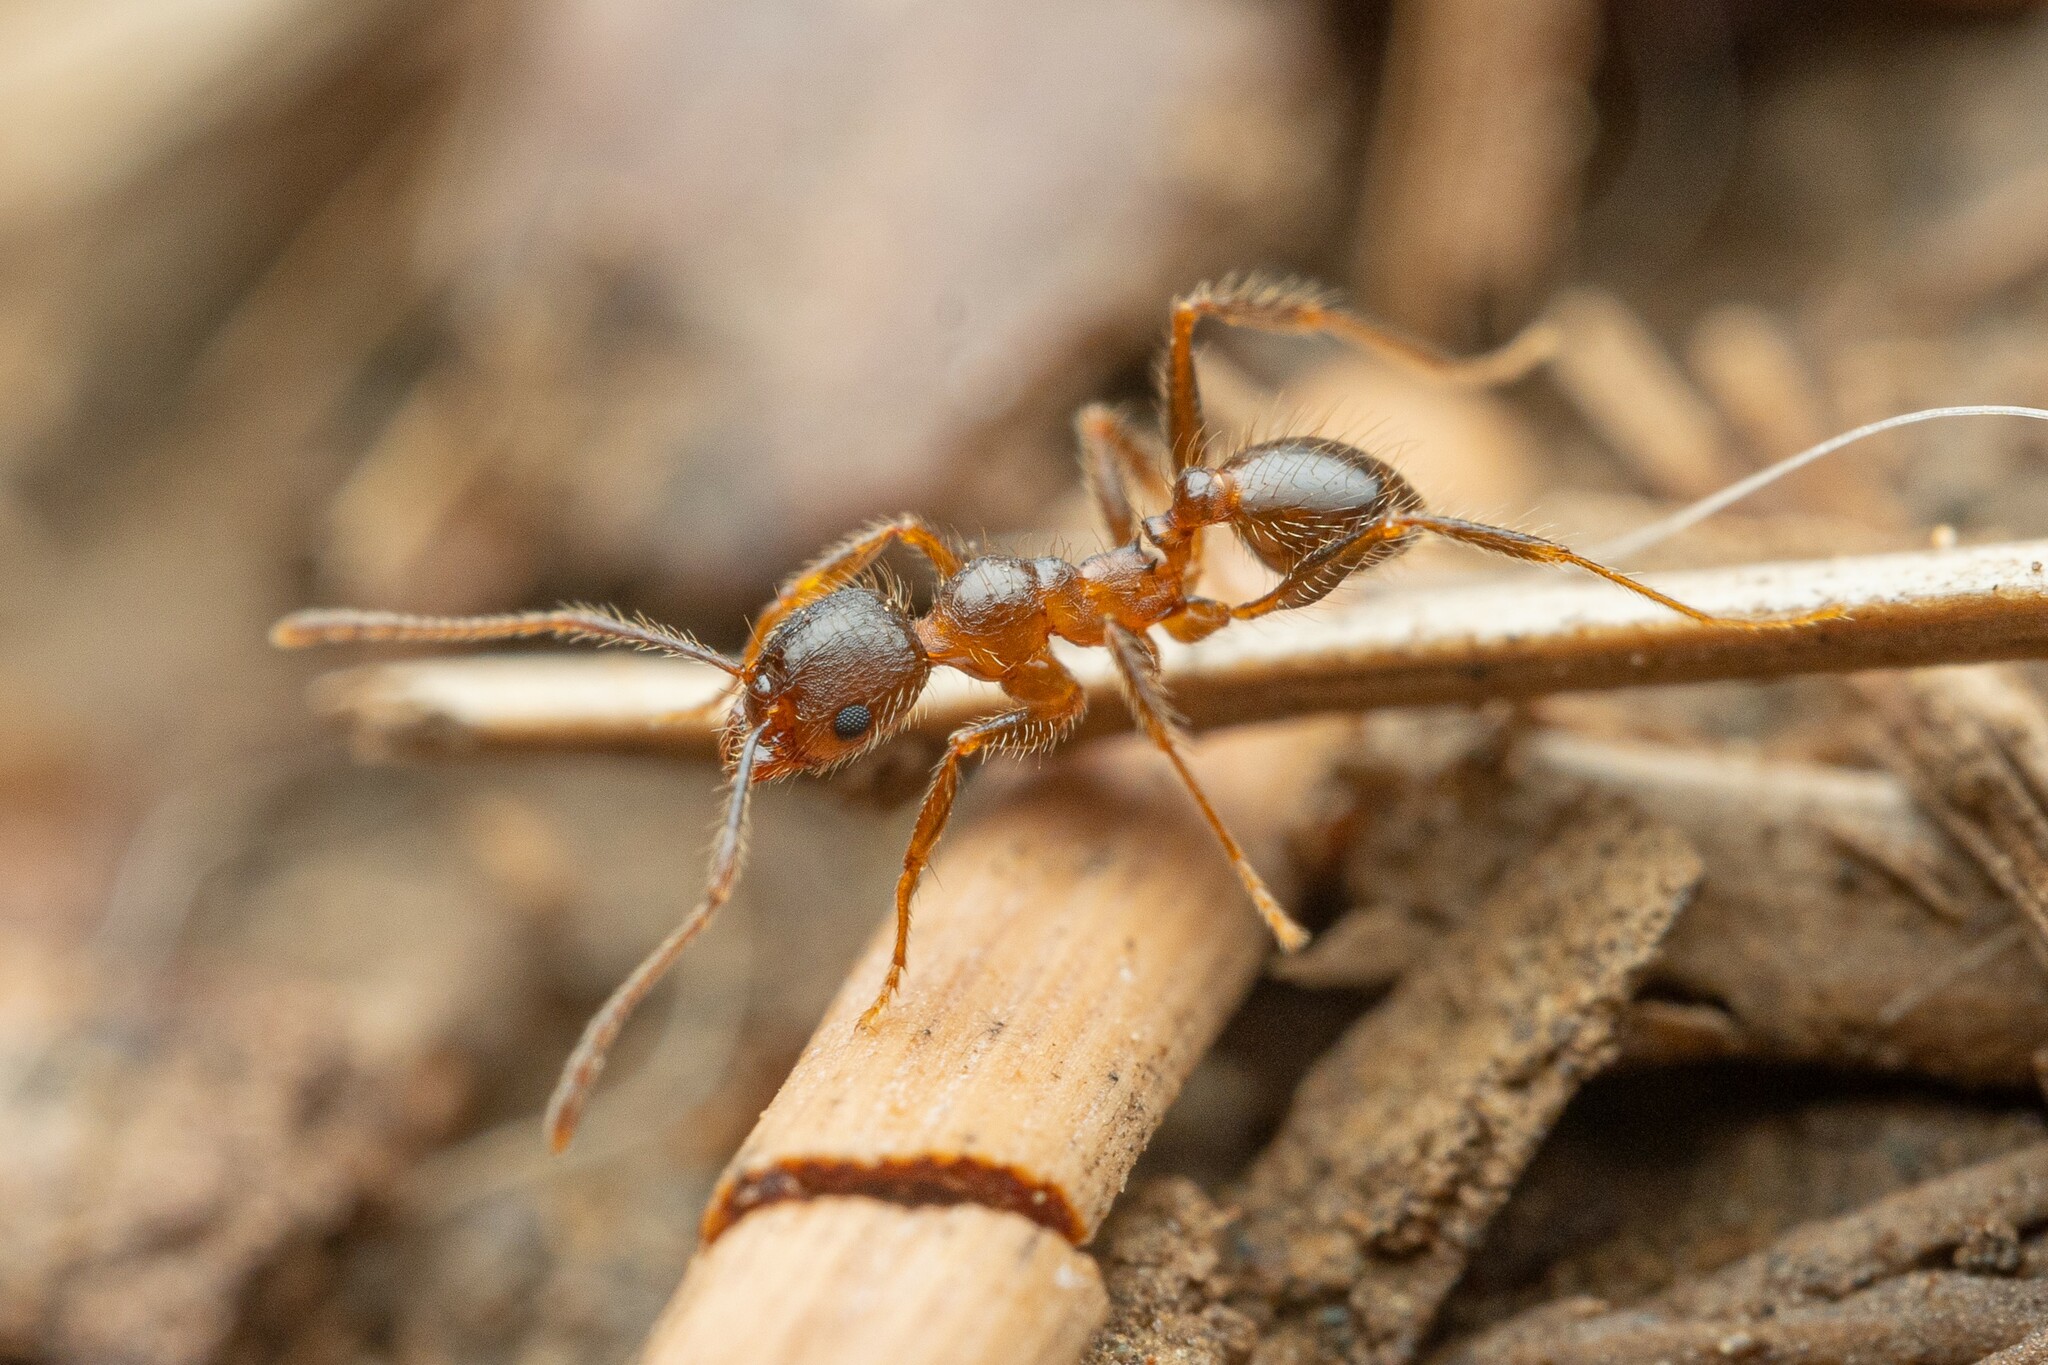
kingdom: Animalia
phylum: Arthropoda
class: Insecta
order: Hymenoptera
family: Formicidae
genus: Pheidole
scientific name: Pheidole perpilosa
